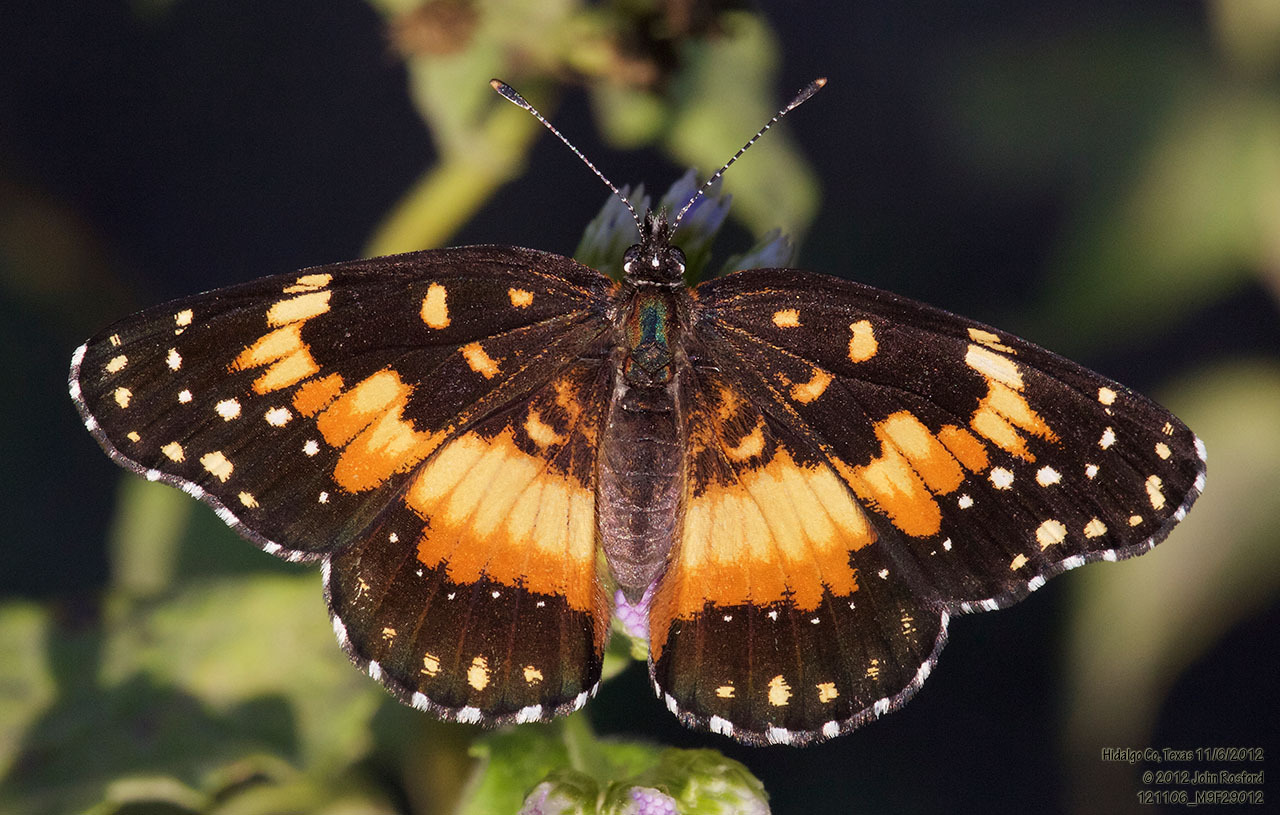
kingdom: Animalia
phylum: Arthropoda
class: Insecta
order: Lepidoptera
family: Nymphalidae
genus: Chlosyne
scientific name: Chlosyne lacinia
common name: Bordered patch
